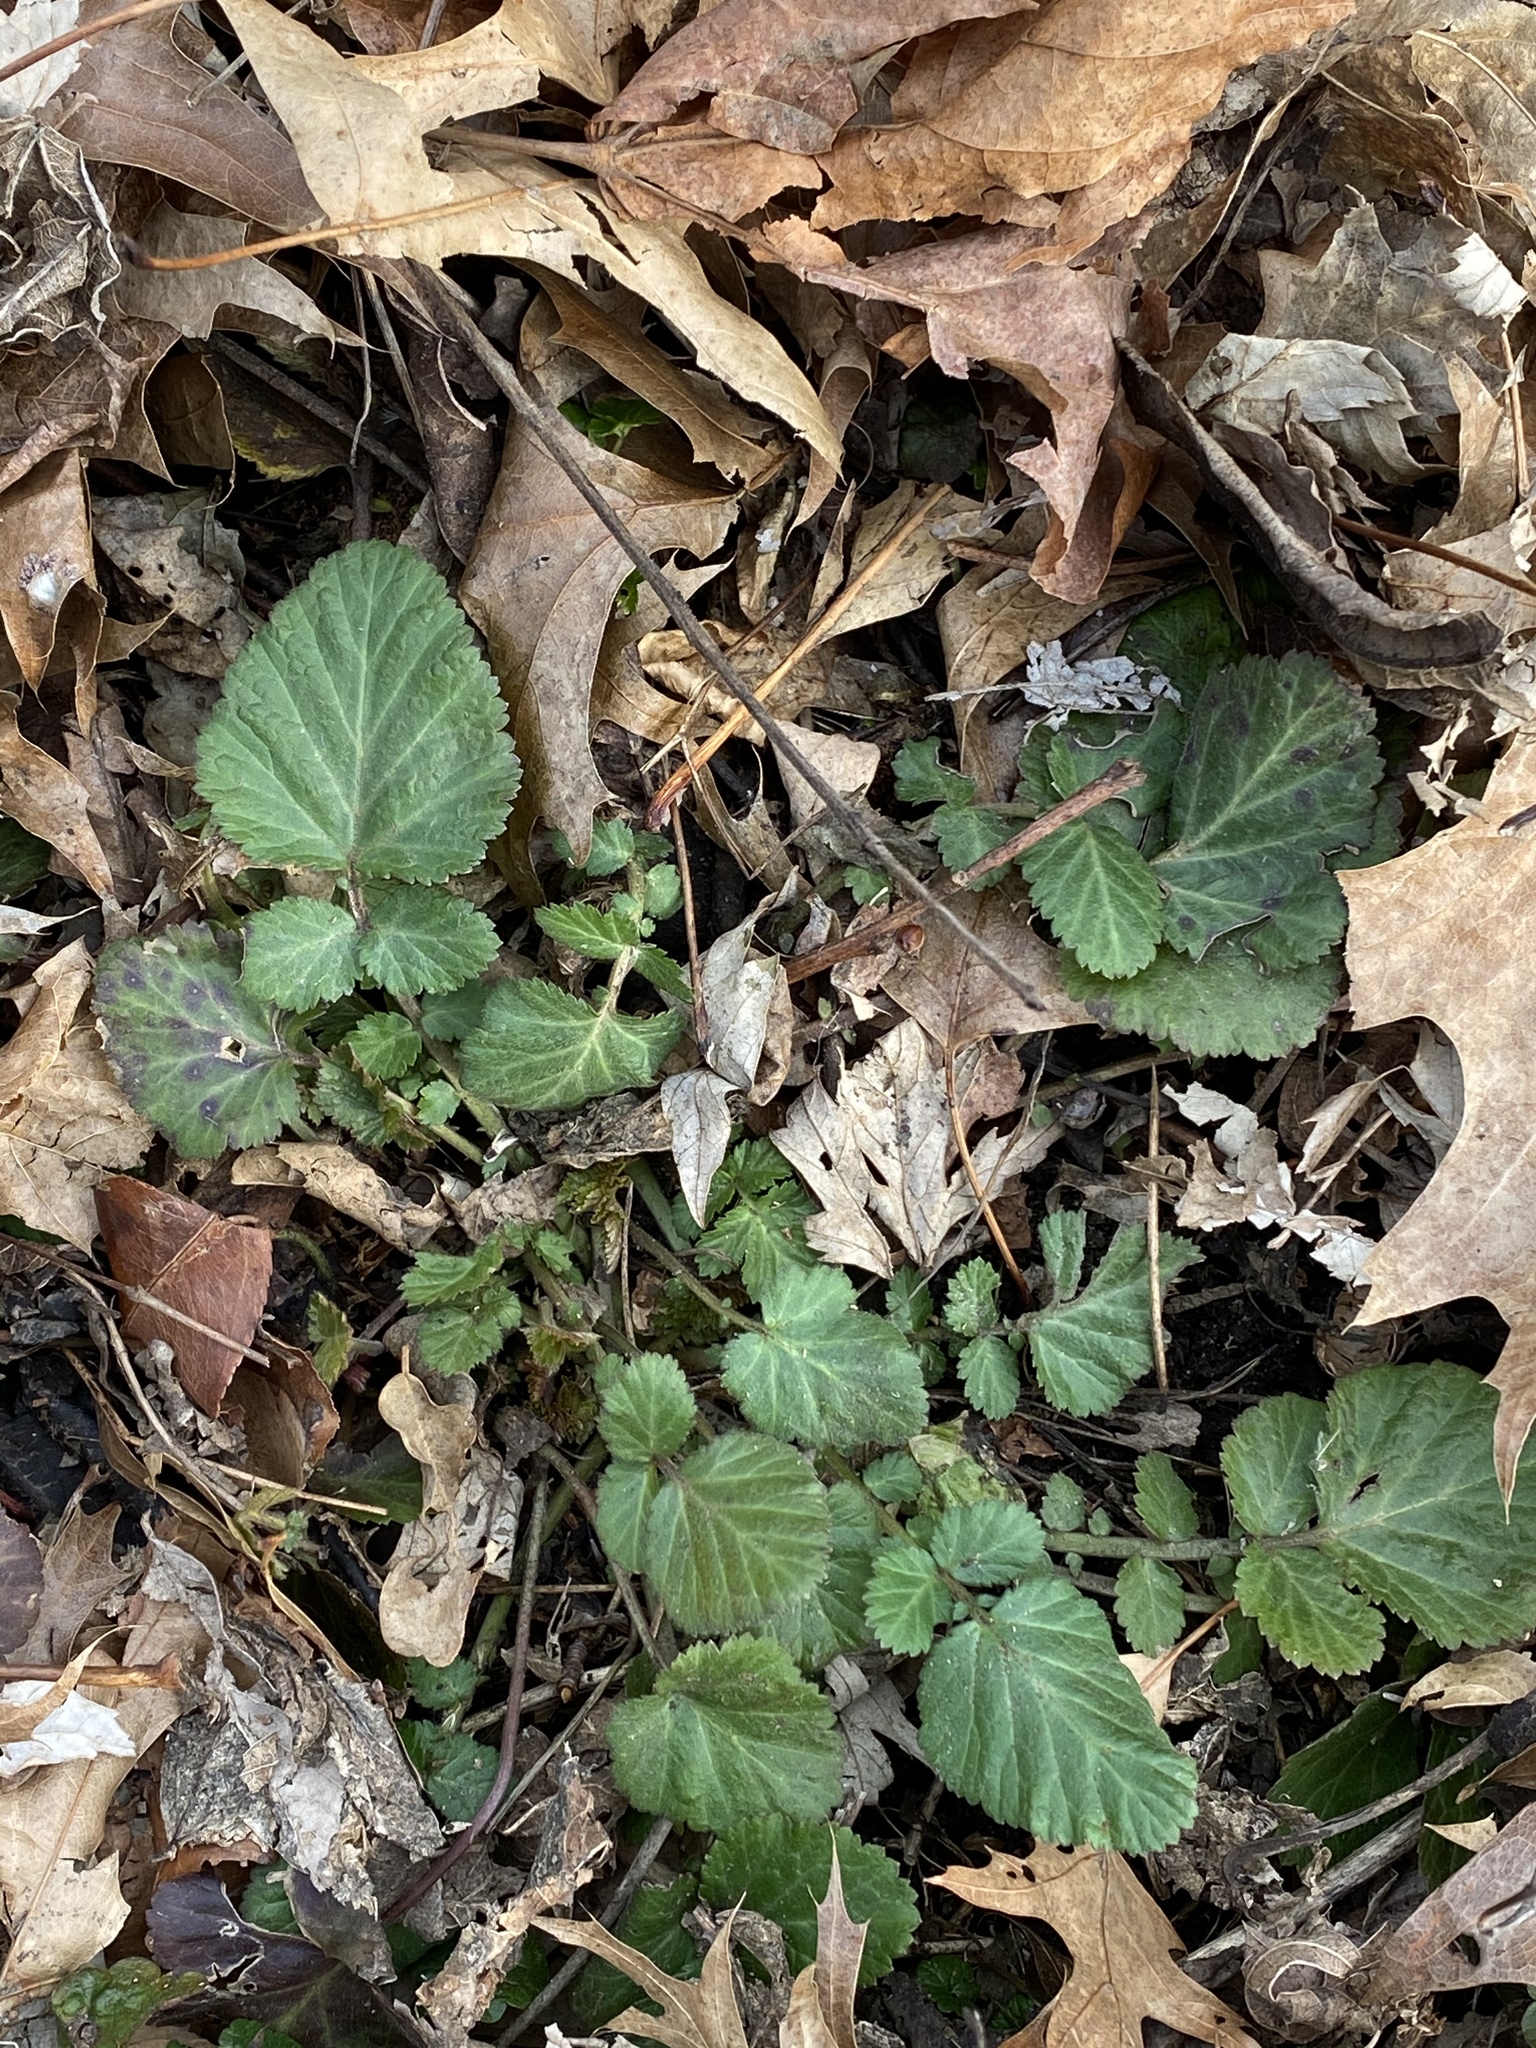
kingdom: Plantae
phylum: Tracheophyta
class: Magnoliopsida
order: Rosales
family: Rosaceae
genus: Geum
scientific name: Geum canadense
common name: White avens
